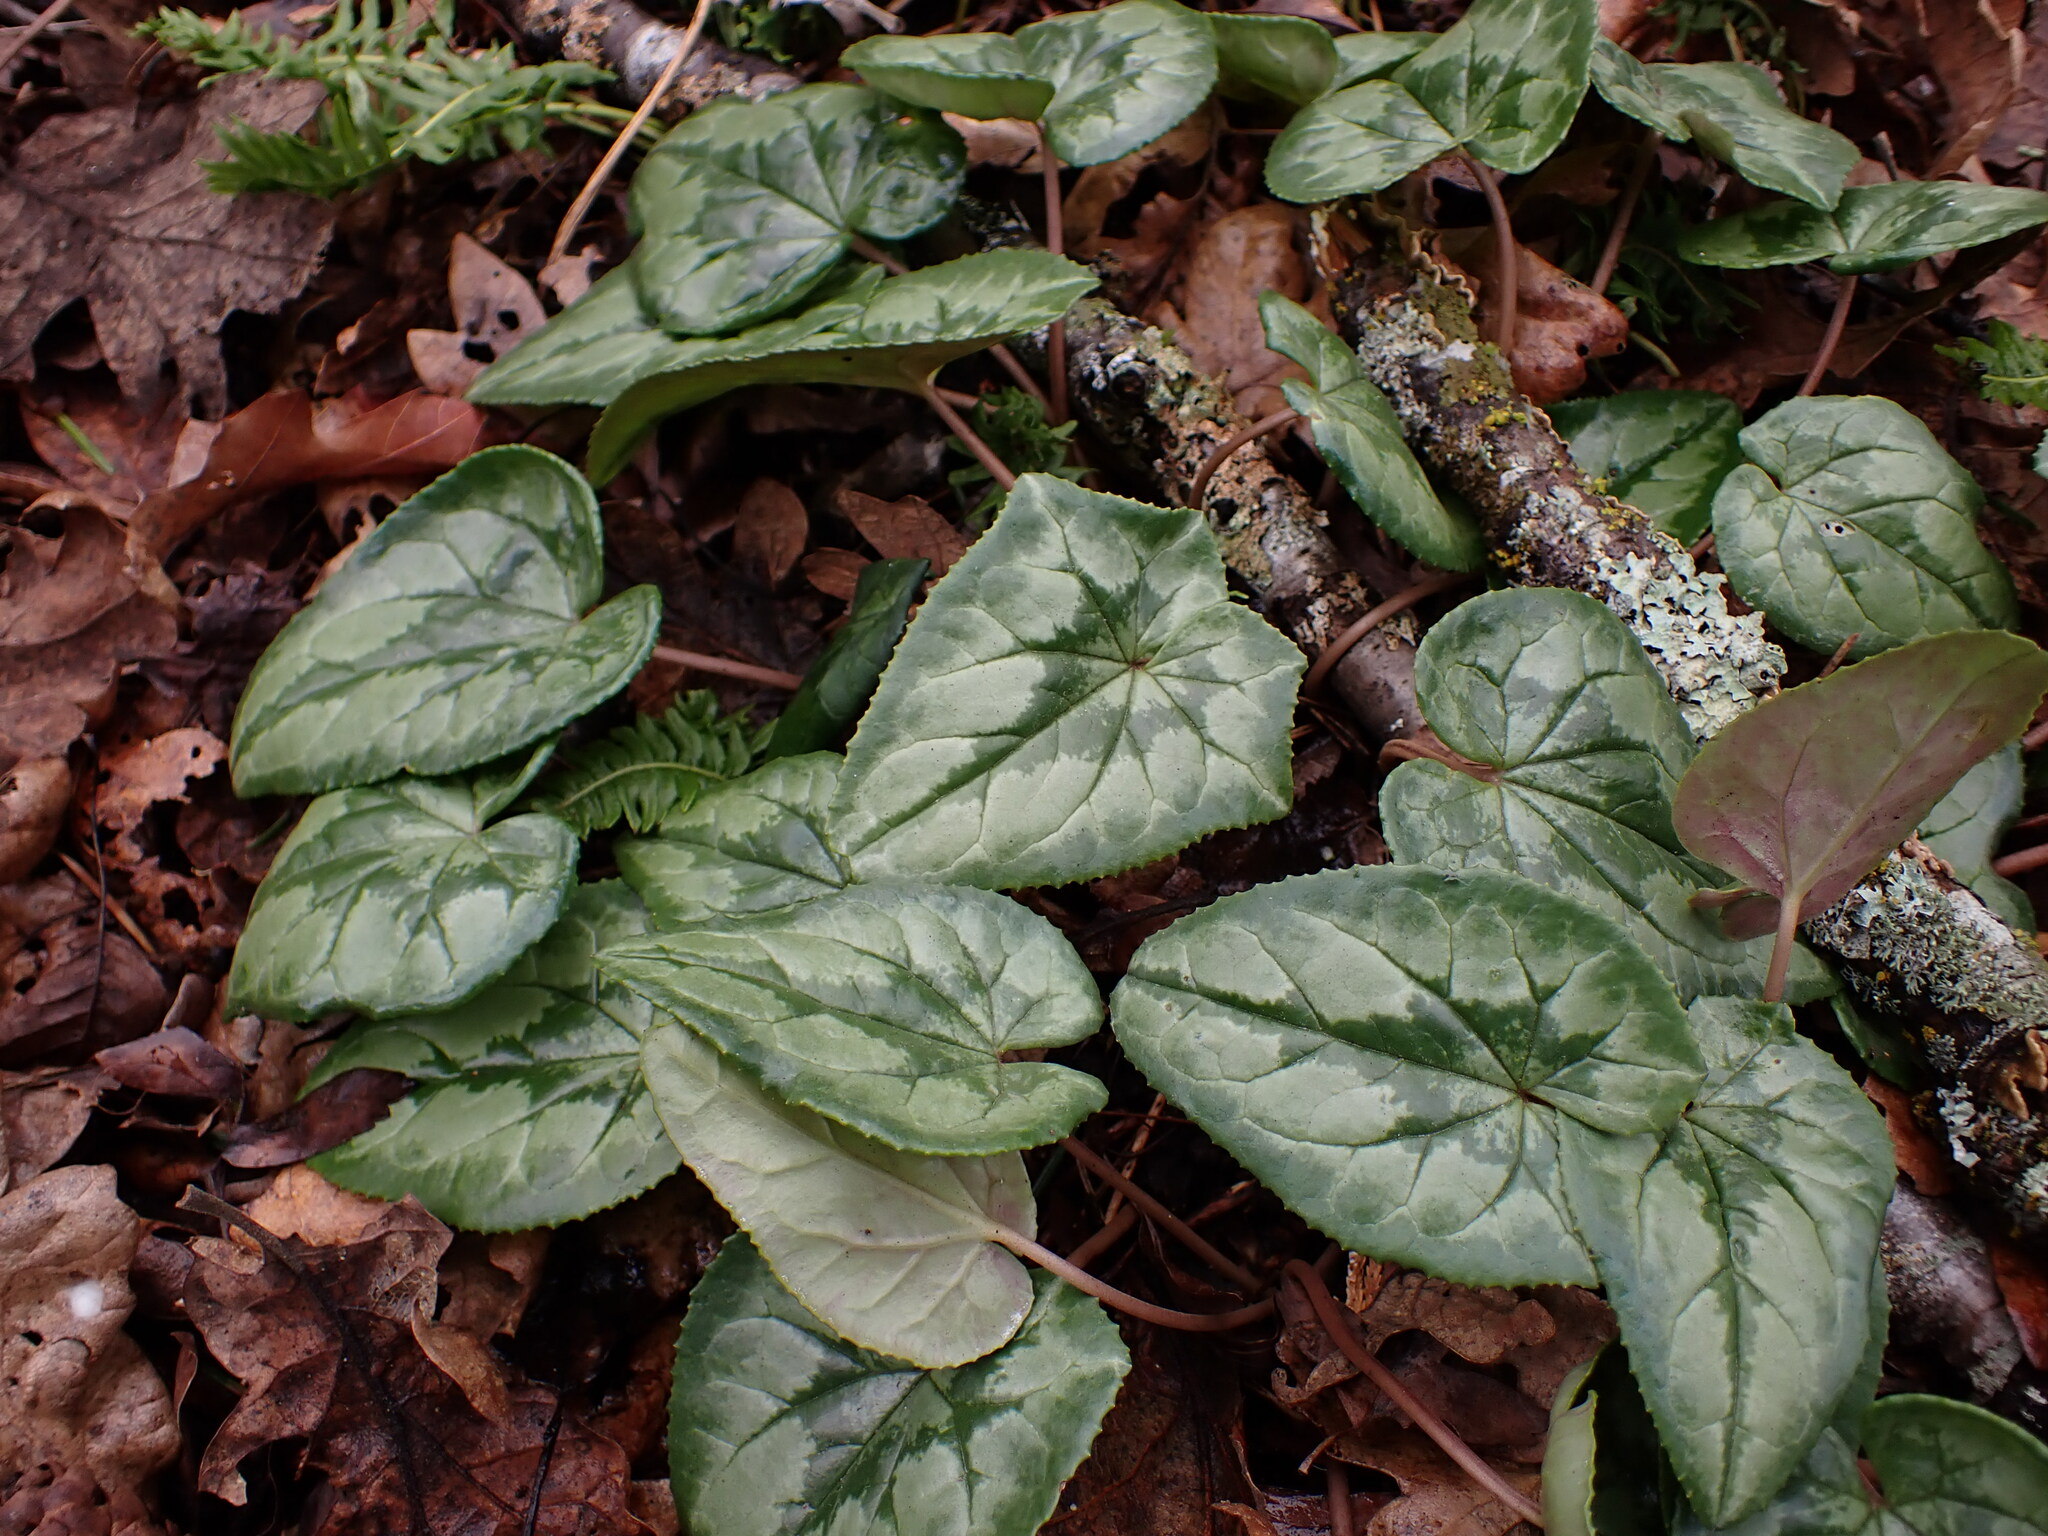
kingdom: Plantae
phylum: Tracheophyta
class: Magnoliopsida
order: Ericales
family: Primulaceae
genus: Cyclamen
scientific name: Cyclamen hederifolium
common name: Sowbread
